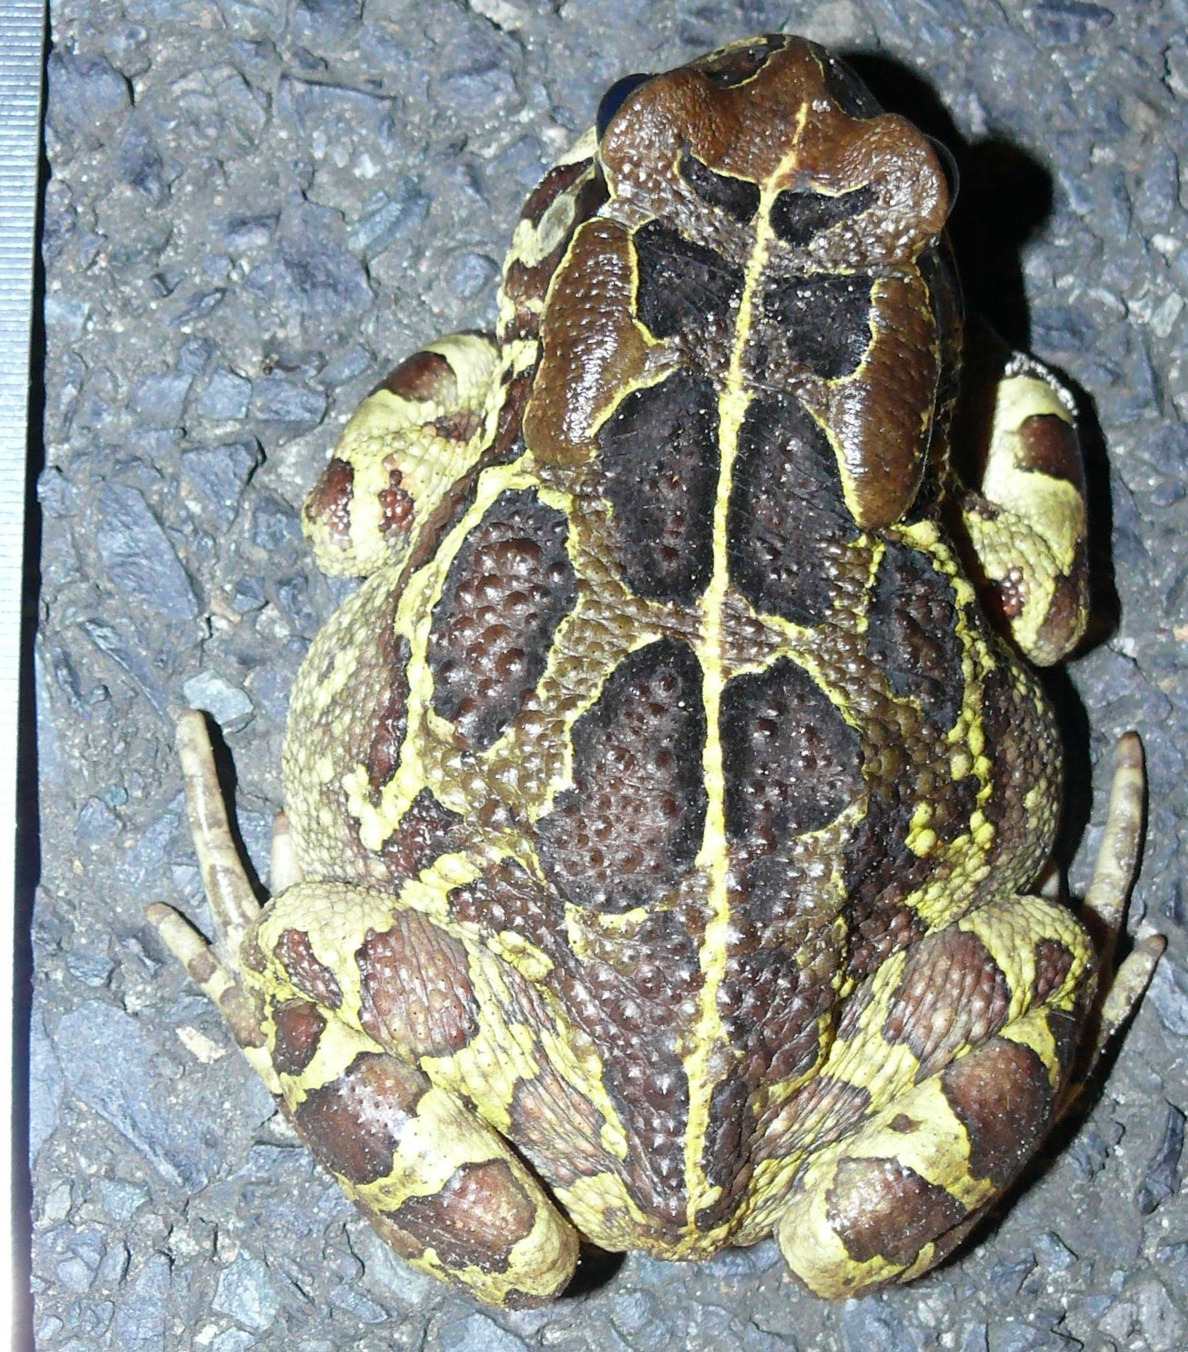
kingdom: Animalia
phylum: Chordata
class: Amphibia
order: Anura
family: Bufonidae
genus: Sclerophrys
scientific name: Sclerophrys pantherina
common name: Panther toad
